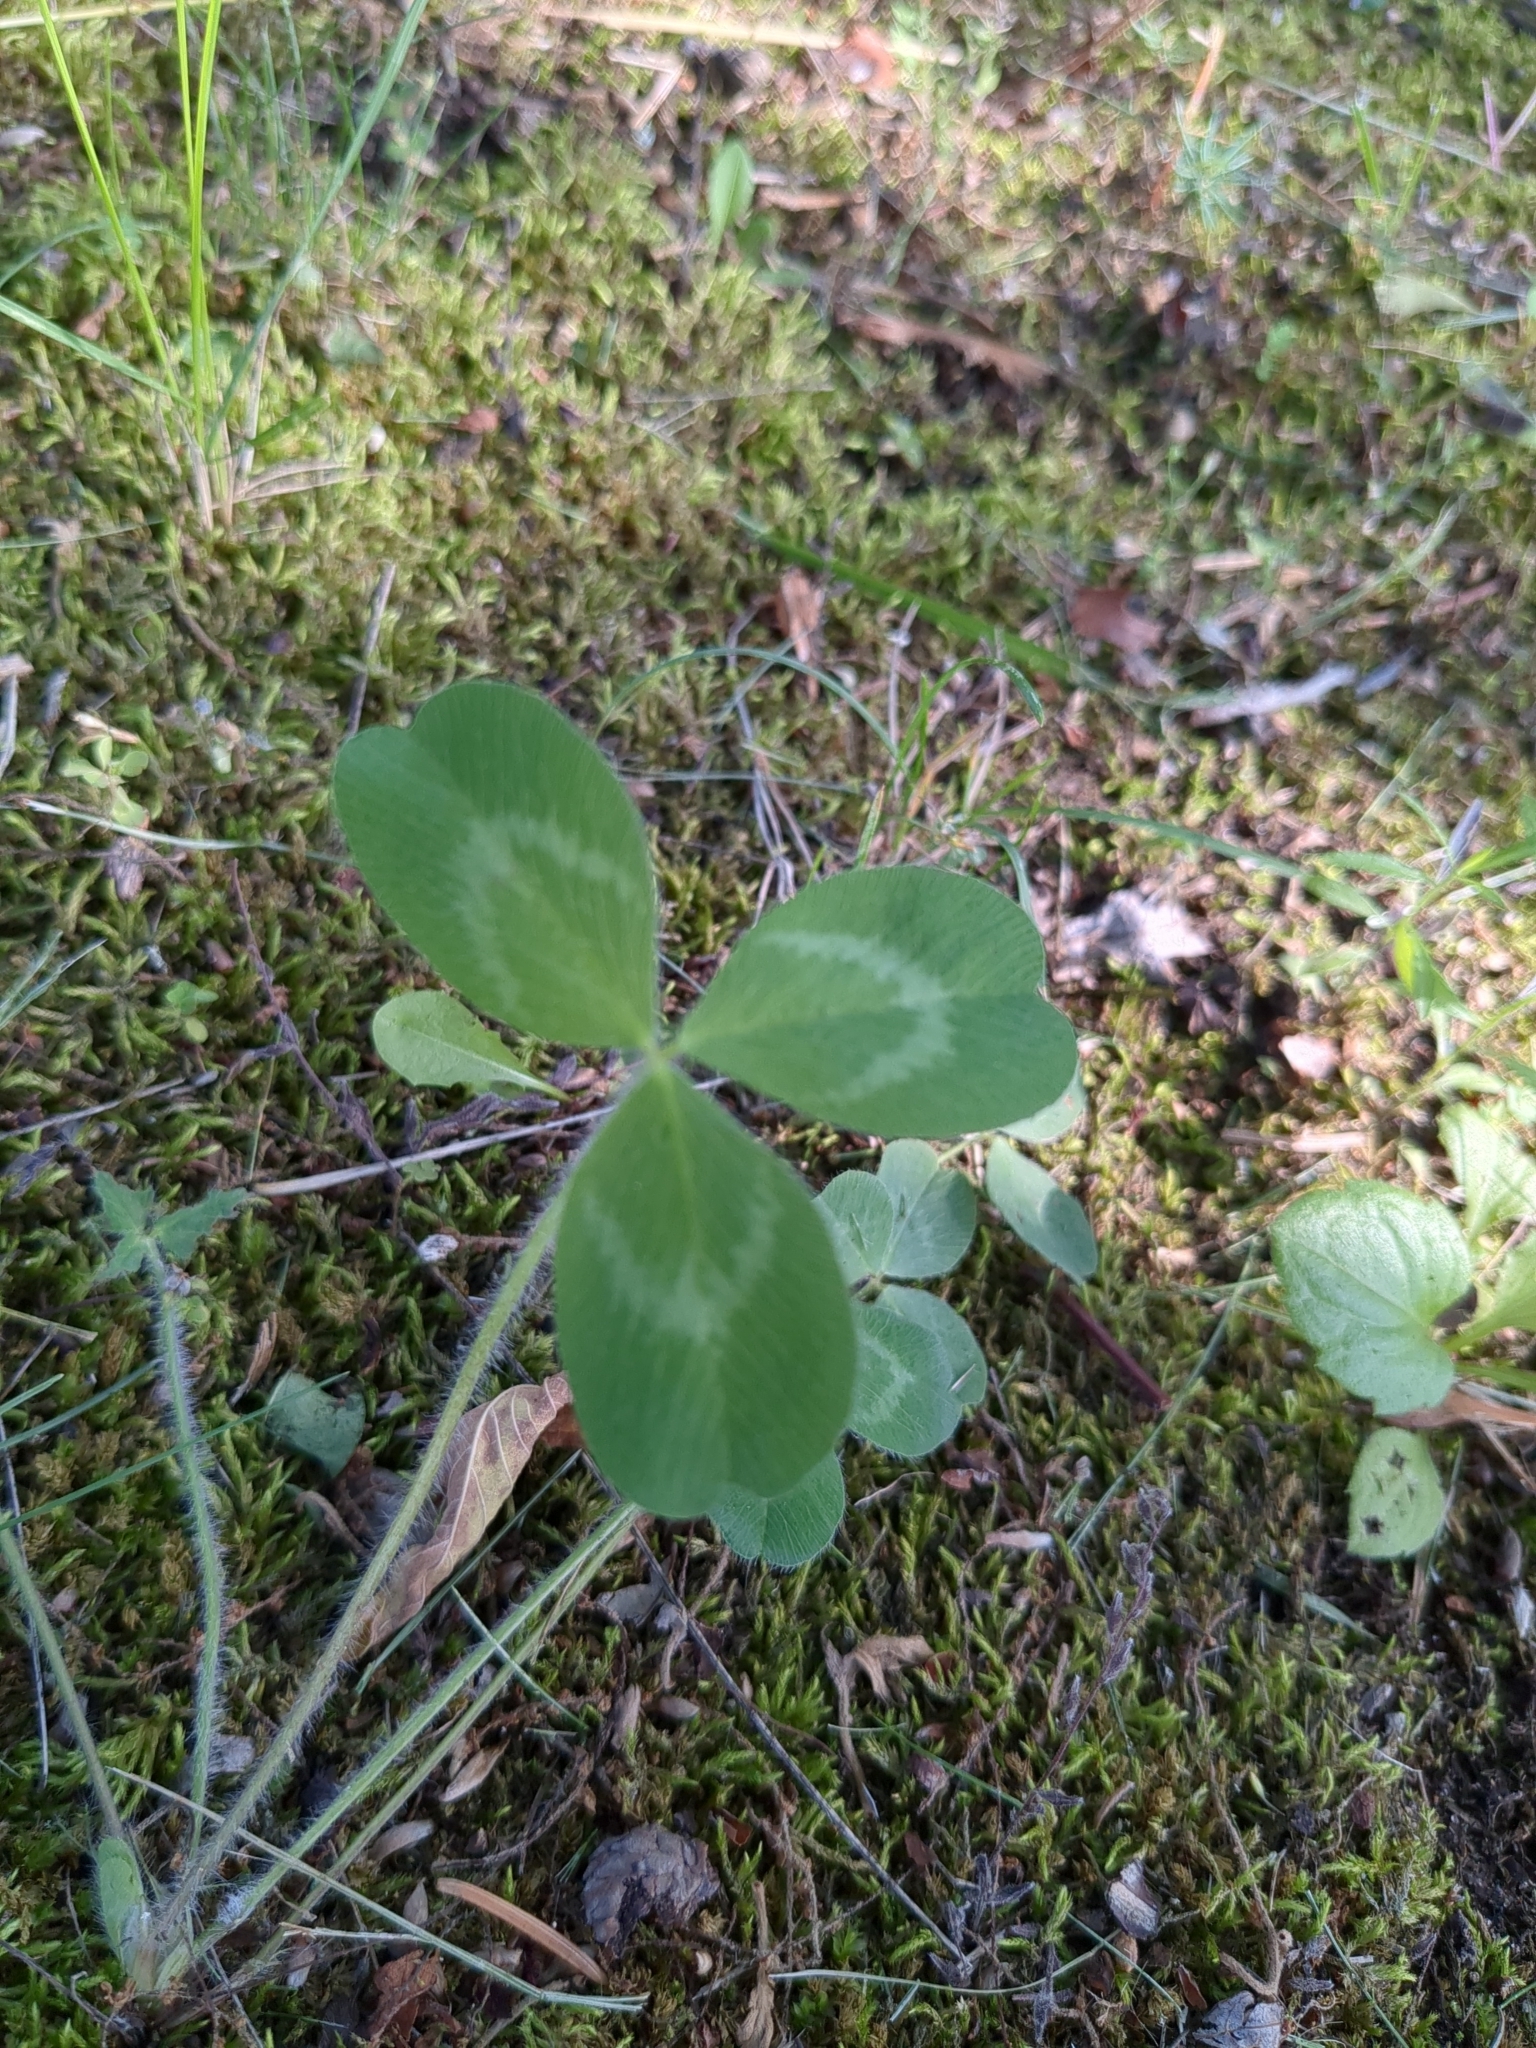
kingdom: Plantae
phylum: Tracheophyta
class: Magnoliopsida
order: Fabales
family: Fabaceae
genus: Trifolium
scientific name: Trifolium pratense
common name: Red clover
